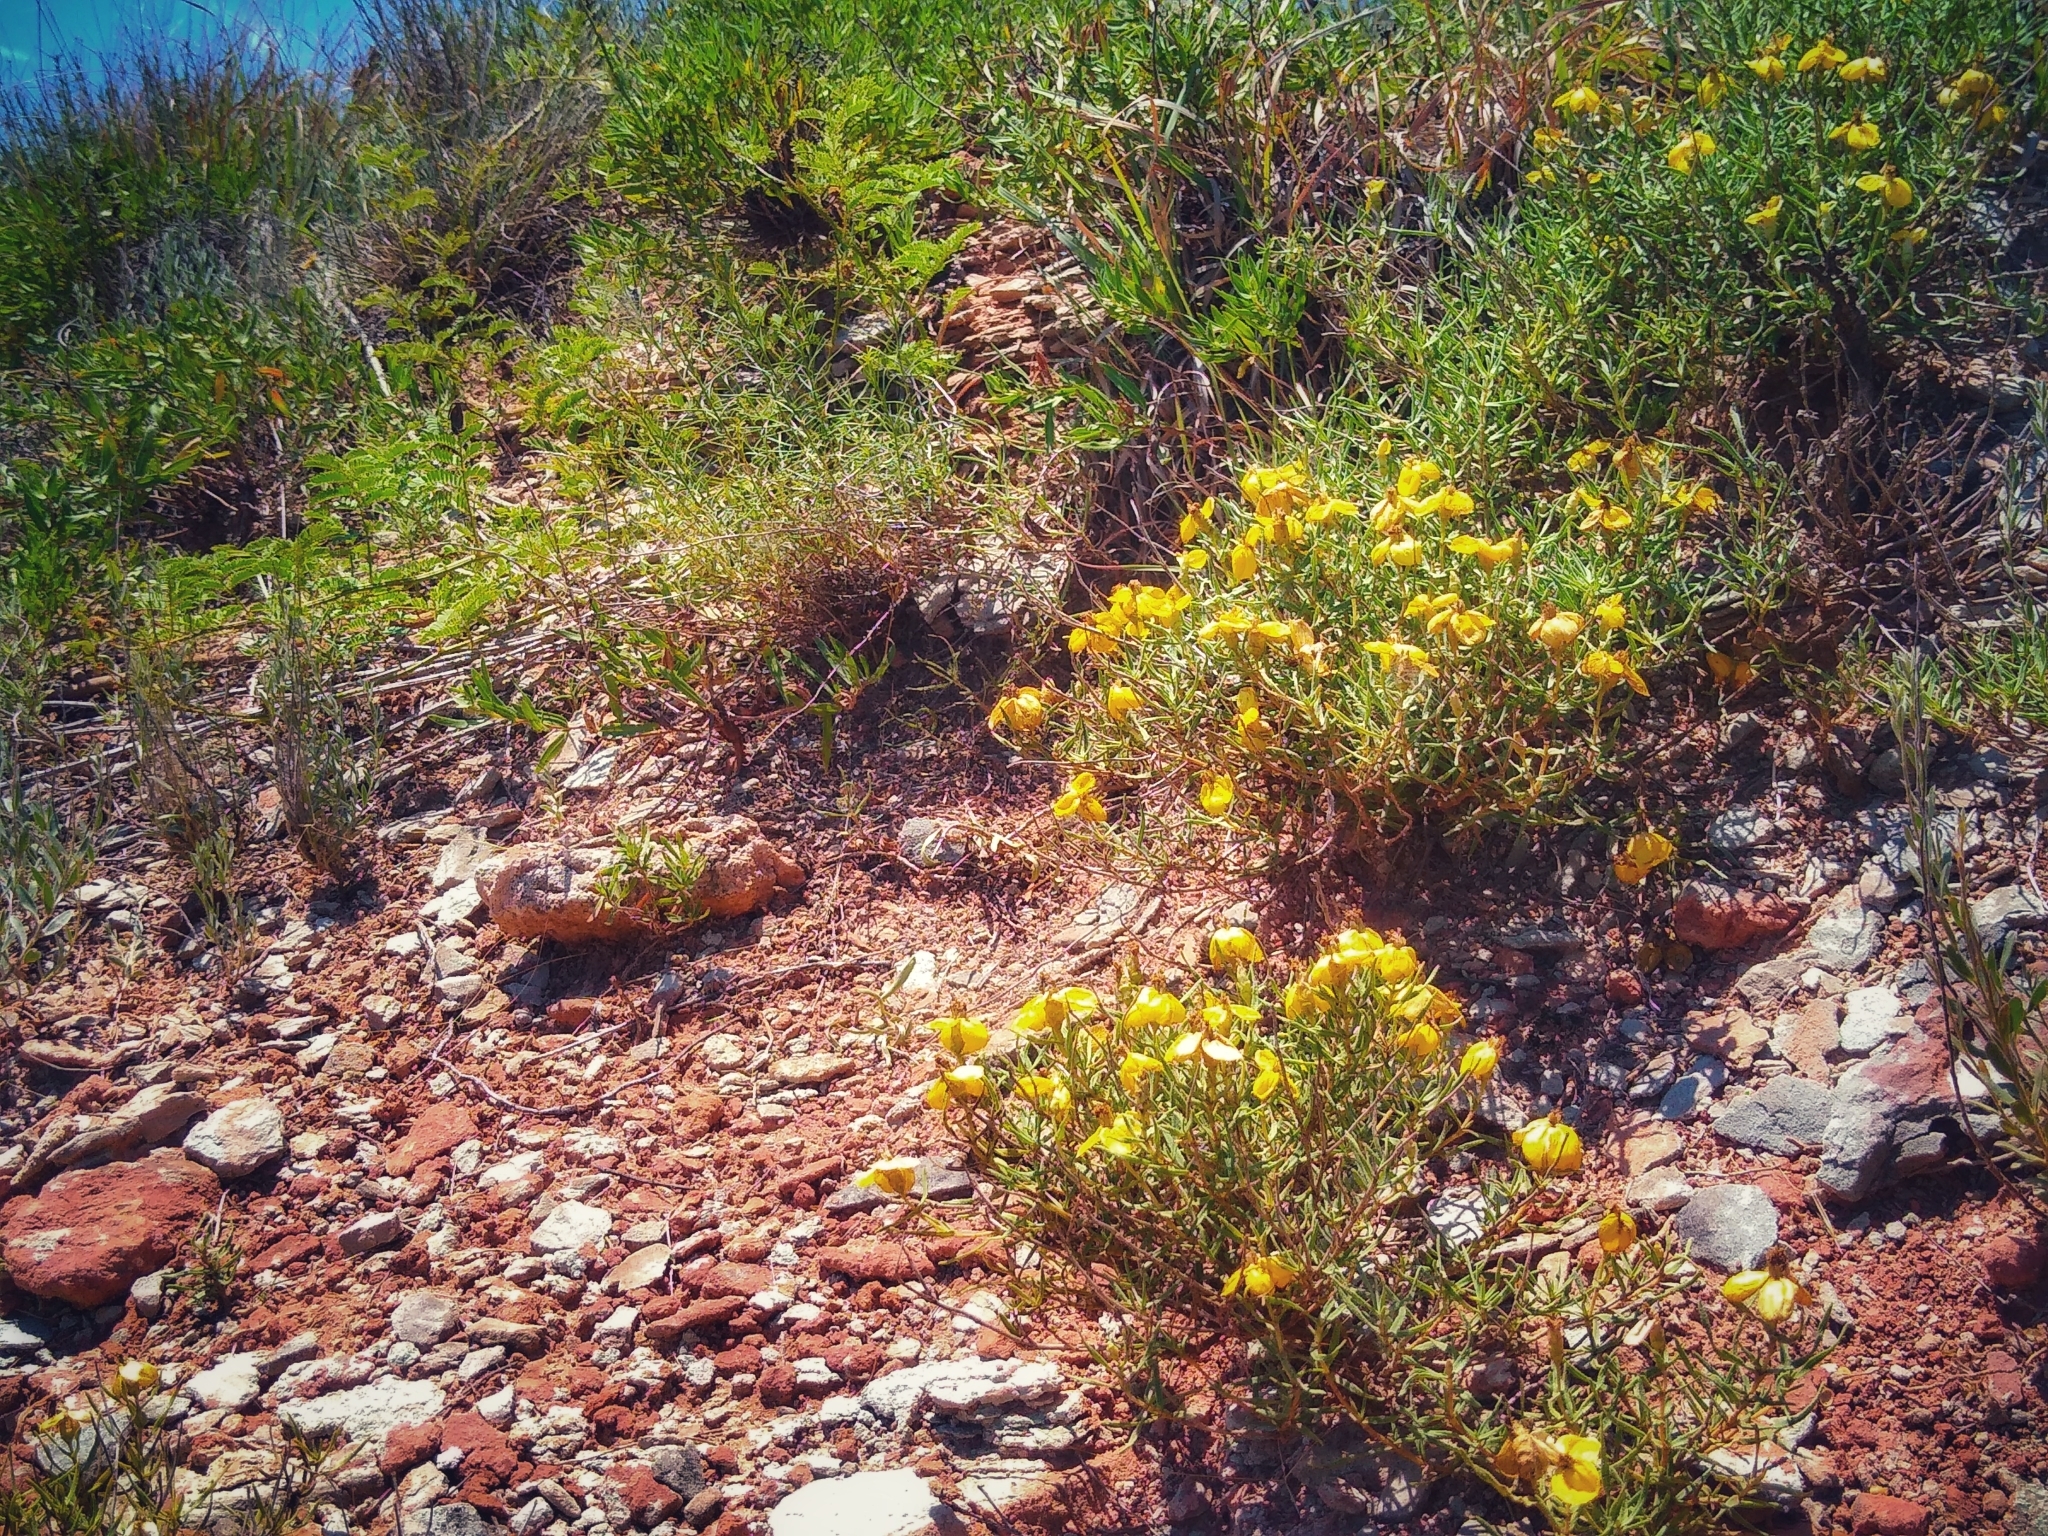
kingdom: Plantae
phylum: Tracheophyta
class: Magnoliopsida
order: Asterales
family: Asteraceae
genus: Zinnia
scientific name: Zinnia grandiflora
